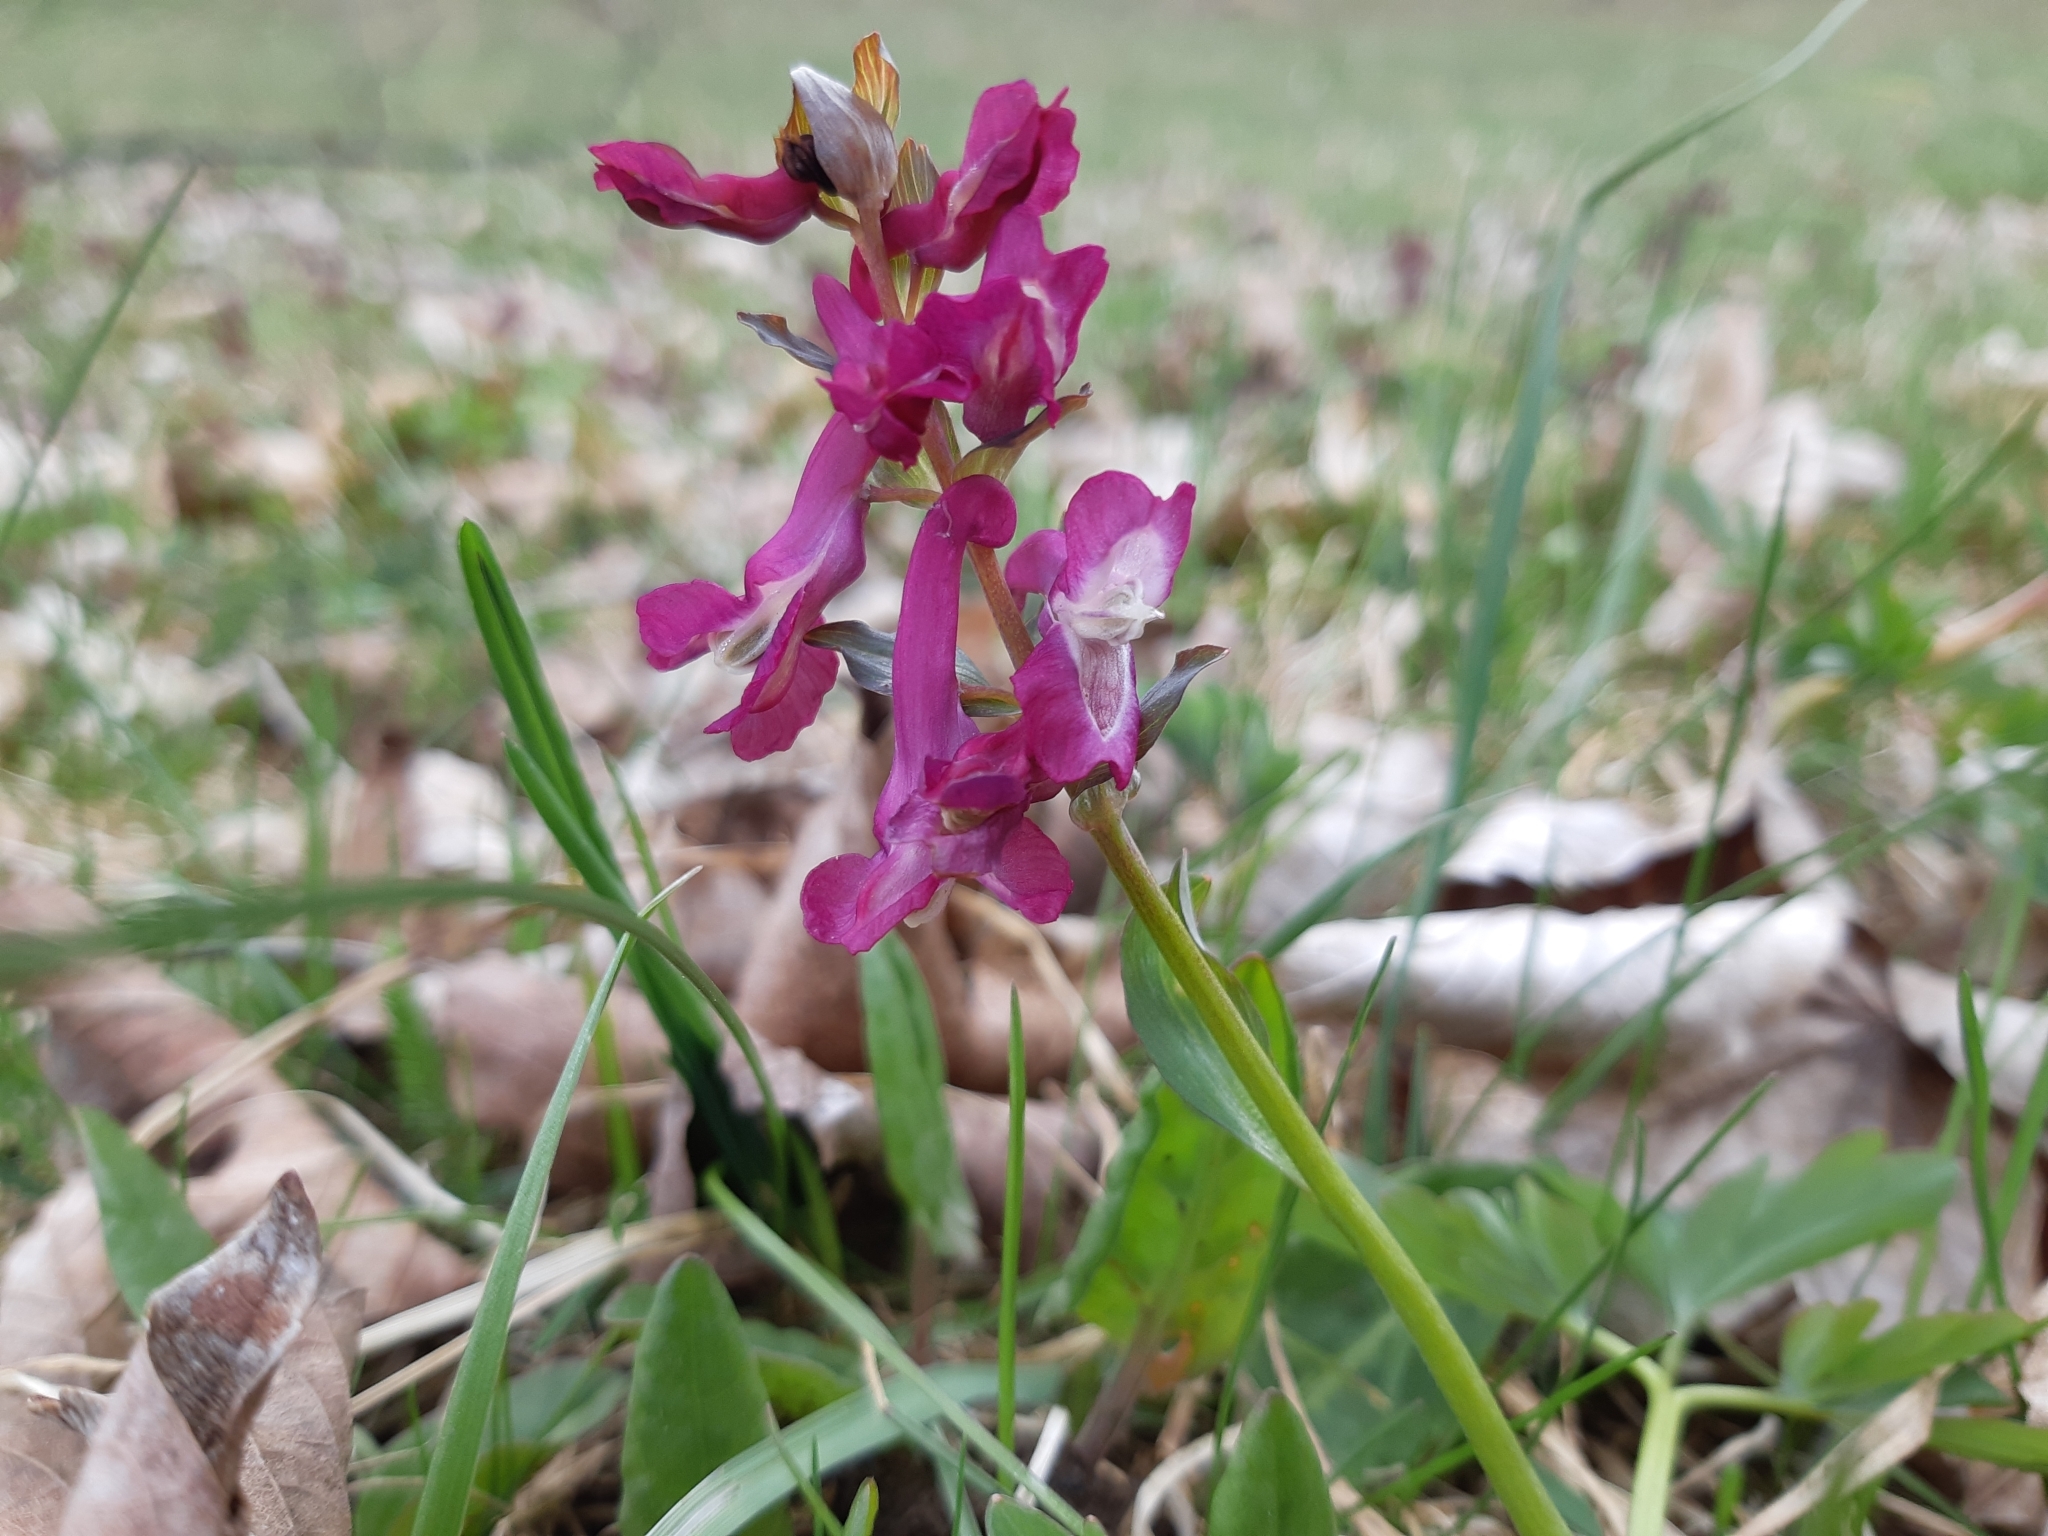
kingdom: Plantae
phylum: Tracheophyta
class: Magnoliopsida
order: Ranunculales
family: Papaveraceae
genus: Corydalis
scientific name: Corydalis cava
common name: Hollowroot
